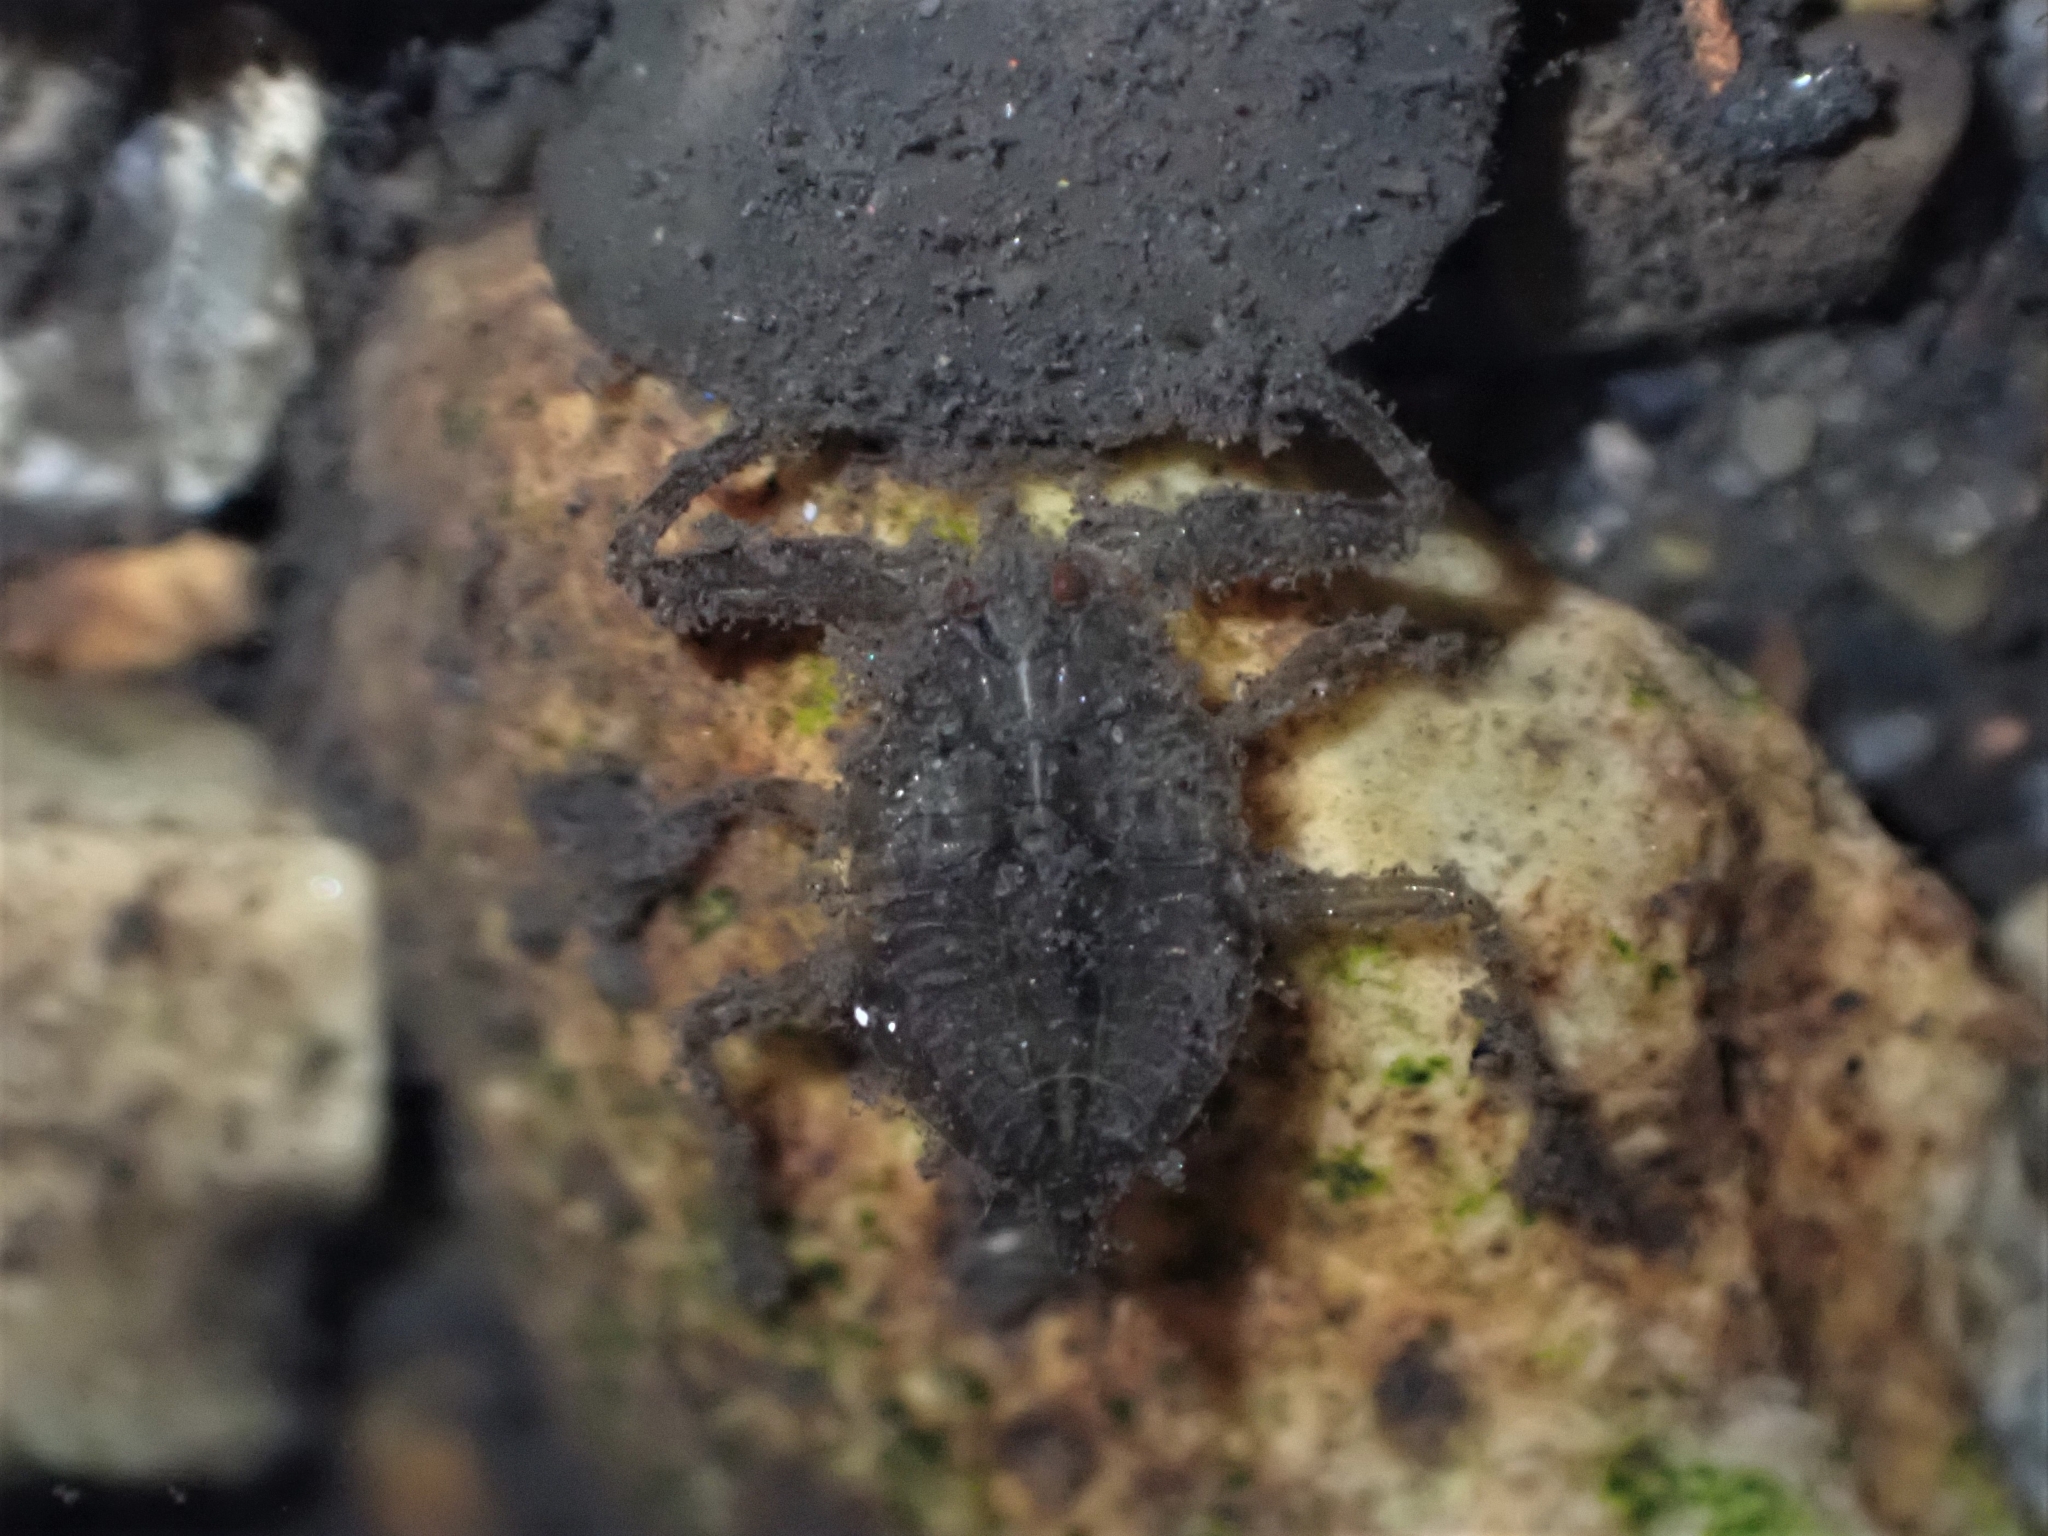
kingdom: Animalia
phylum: Arthropoda
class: Insecta
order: Hemiptera
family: Nepidae
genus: Nepa
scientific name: Nepa cinerea
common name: Water scorpion
